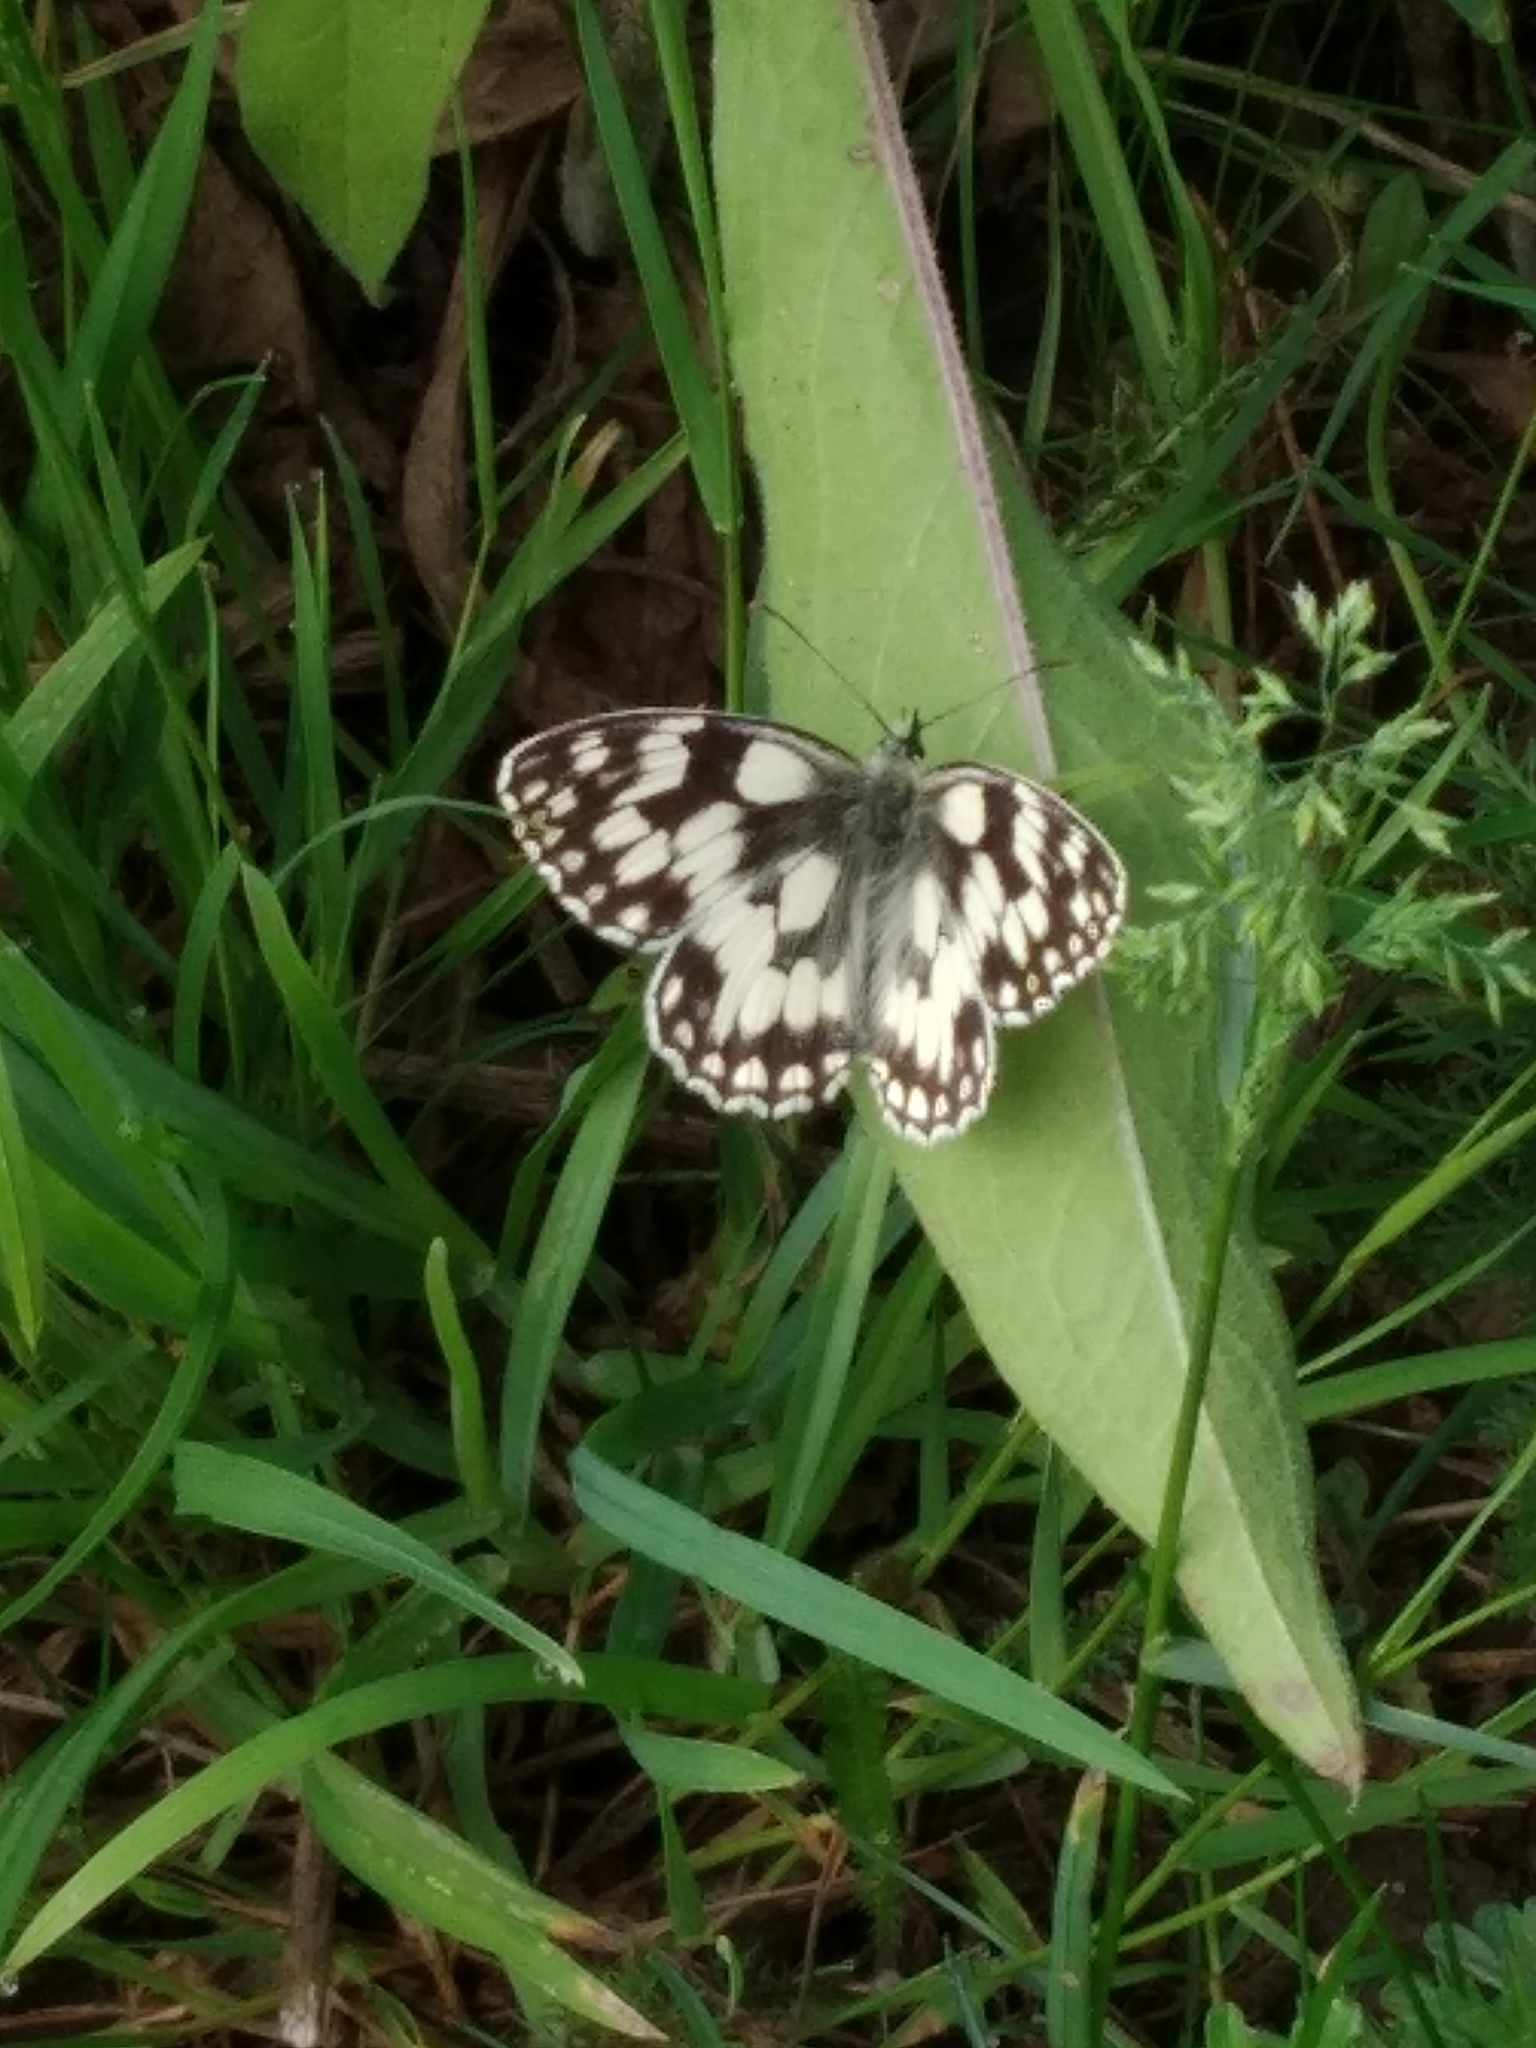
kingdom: Animalia
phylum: Arthropoda
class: Insecta
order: Lepidoptera
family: Nymphalidae
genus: Melanargia
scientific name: Melanargia galathea
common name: Marbled white
